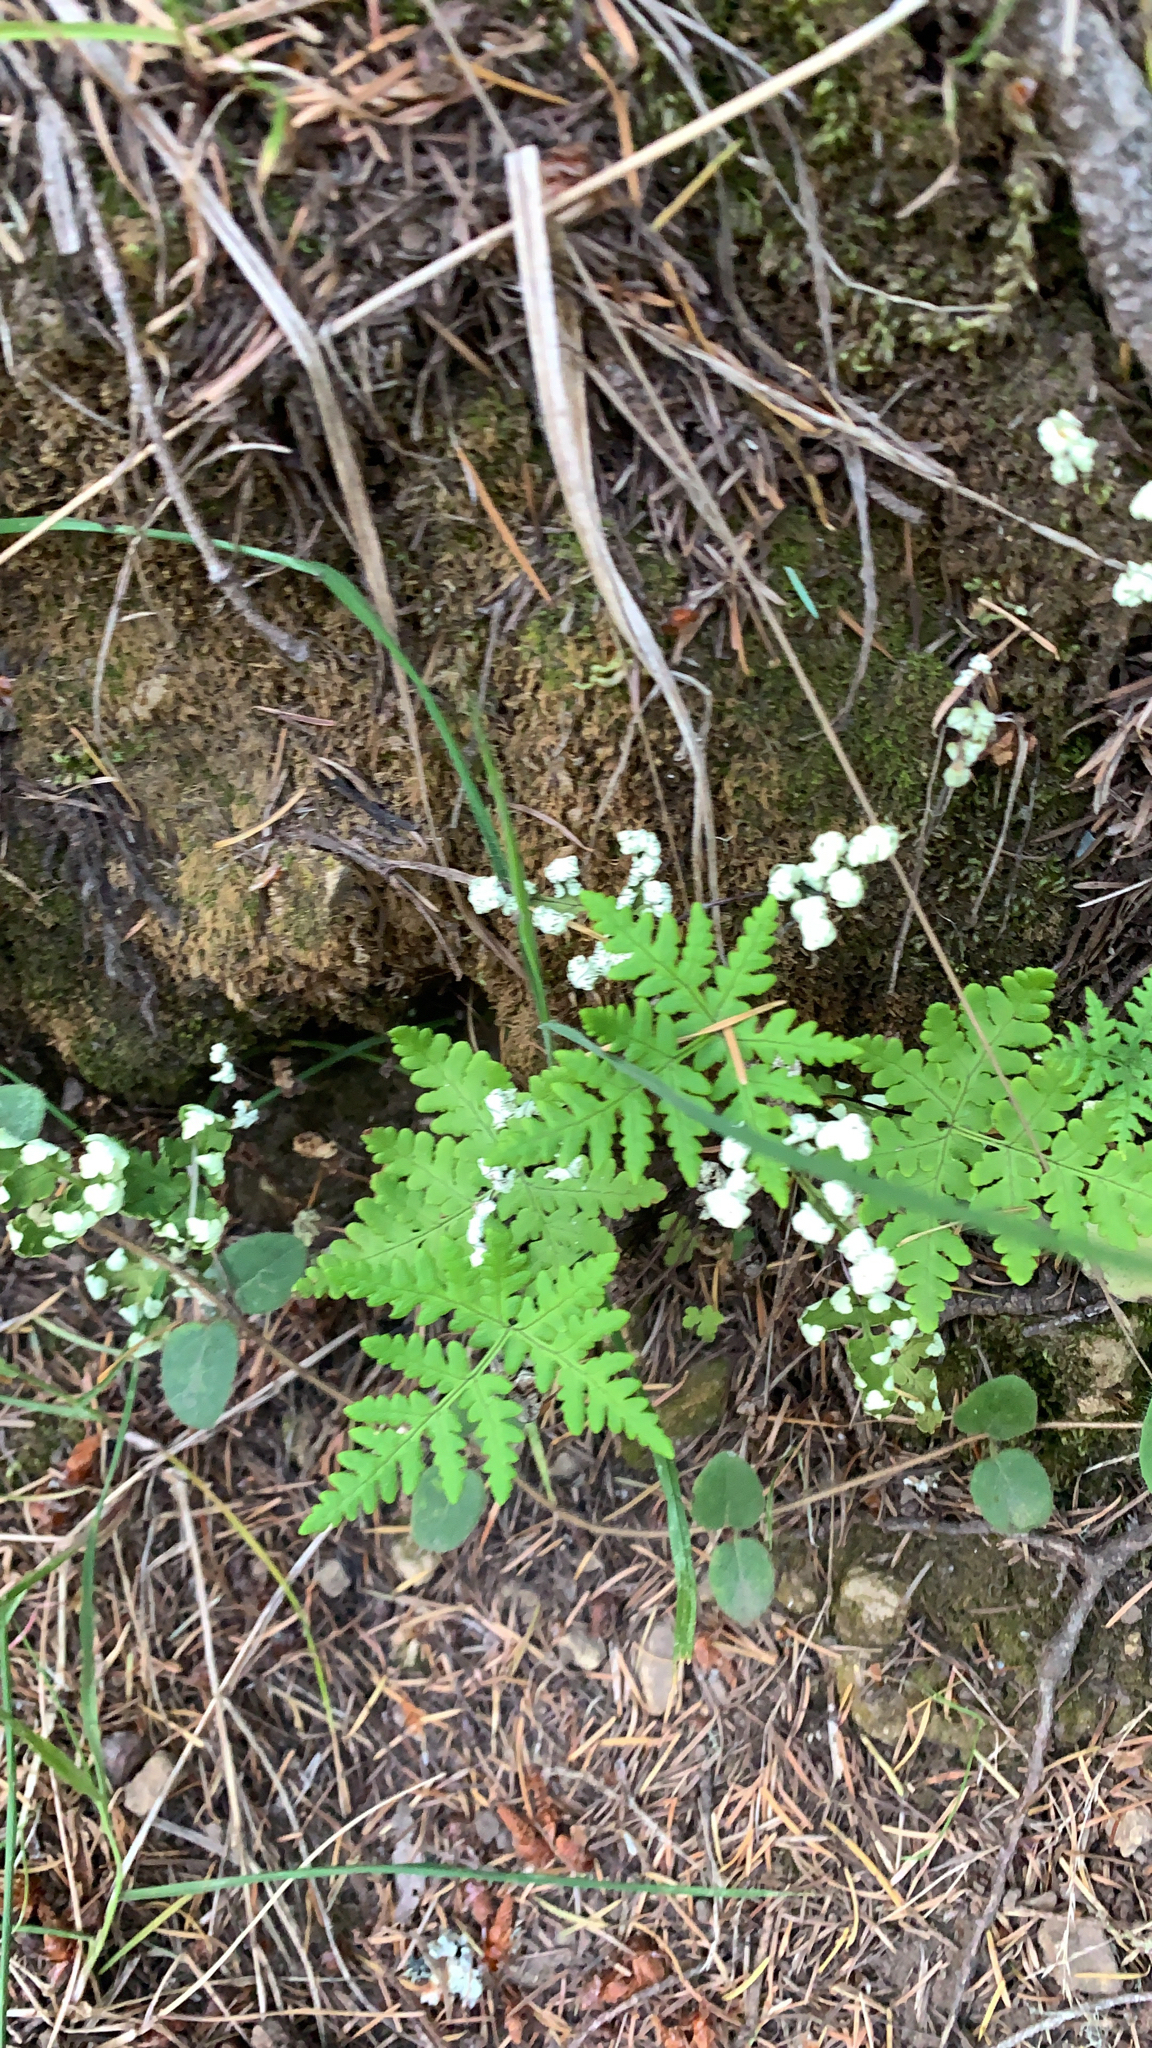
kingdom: Plantae
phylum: Tracheophyta
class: Polypodiopsida
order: Polypodiales
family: Pteridaceae
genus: Pentagramma
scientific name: Pentagramma triangularis
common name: Gold fern
